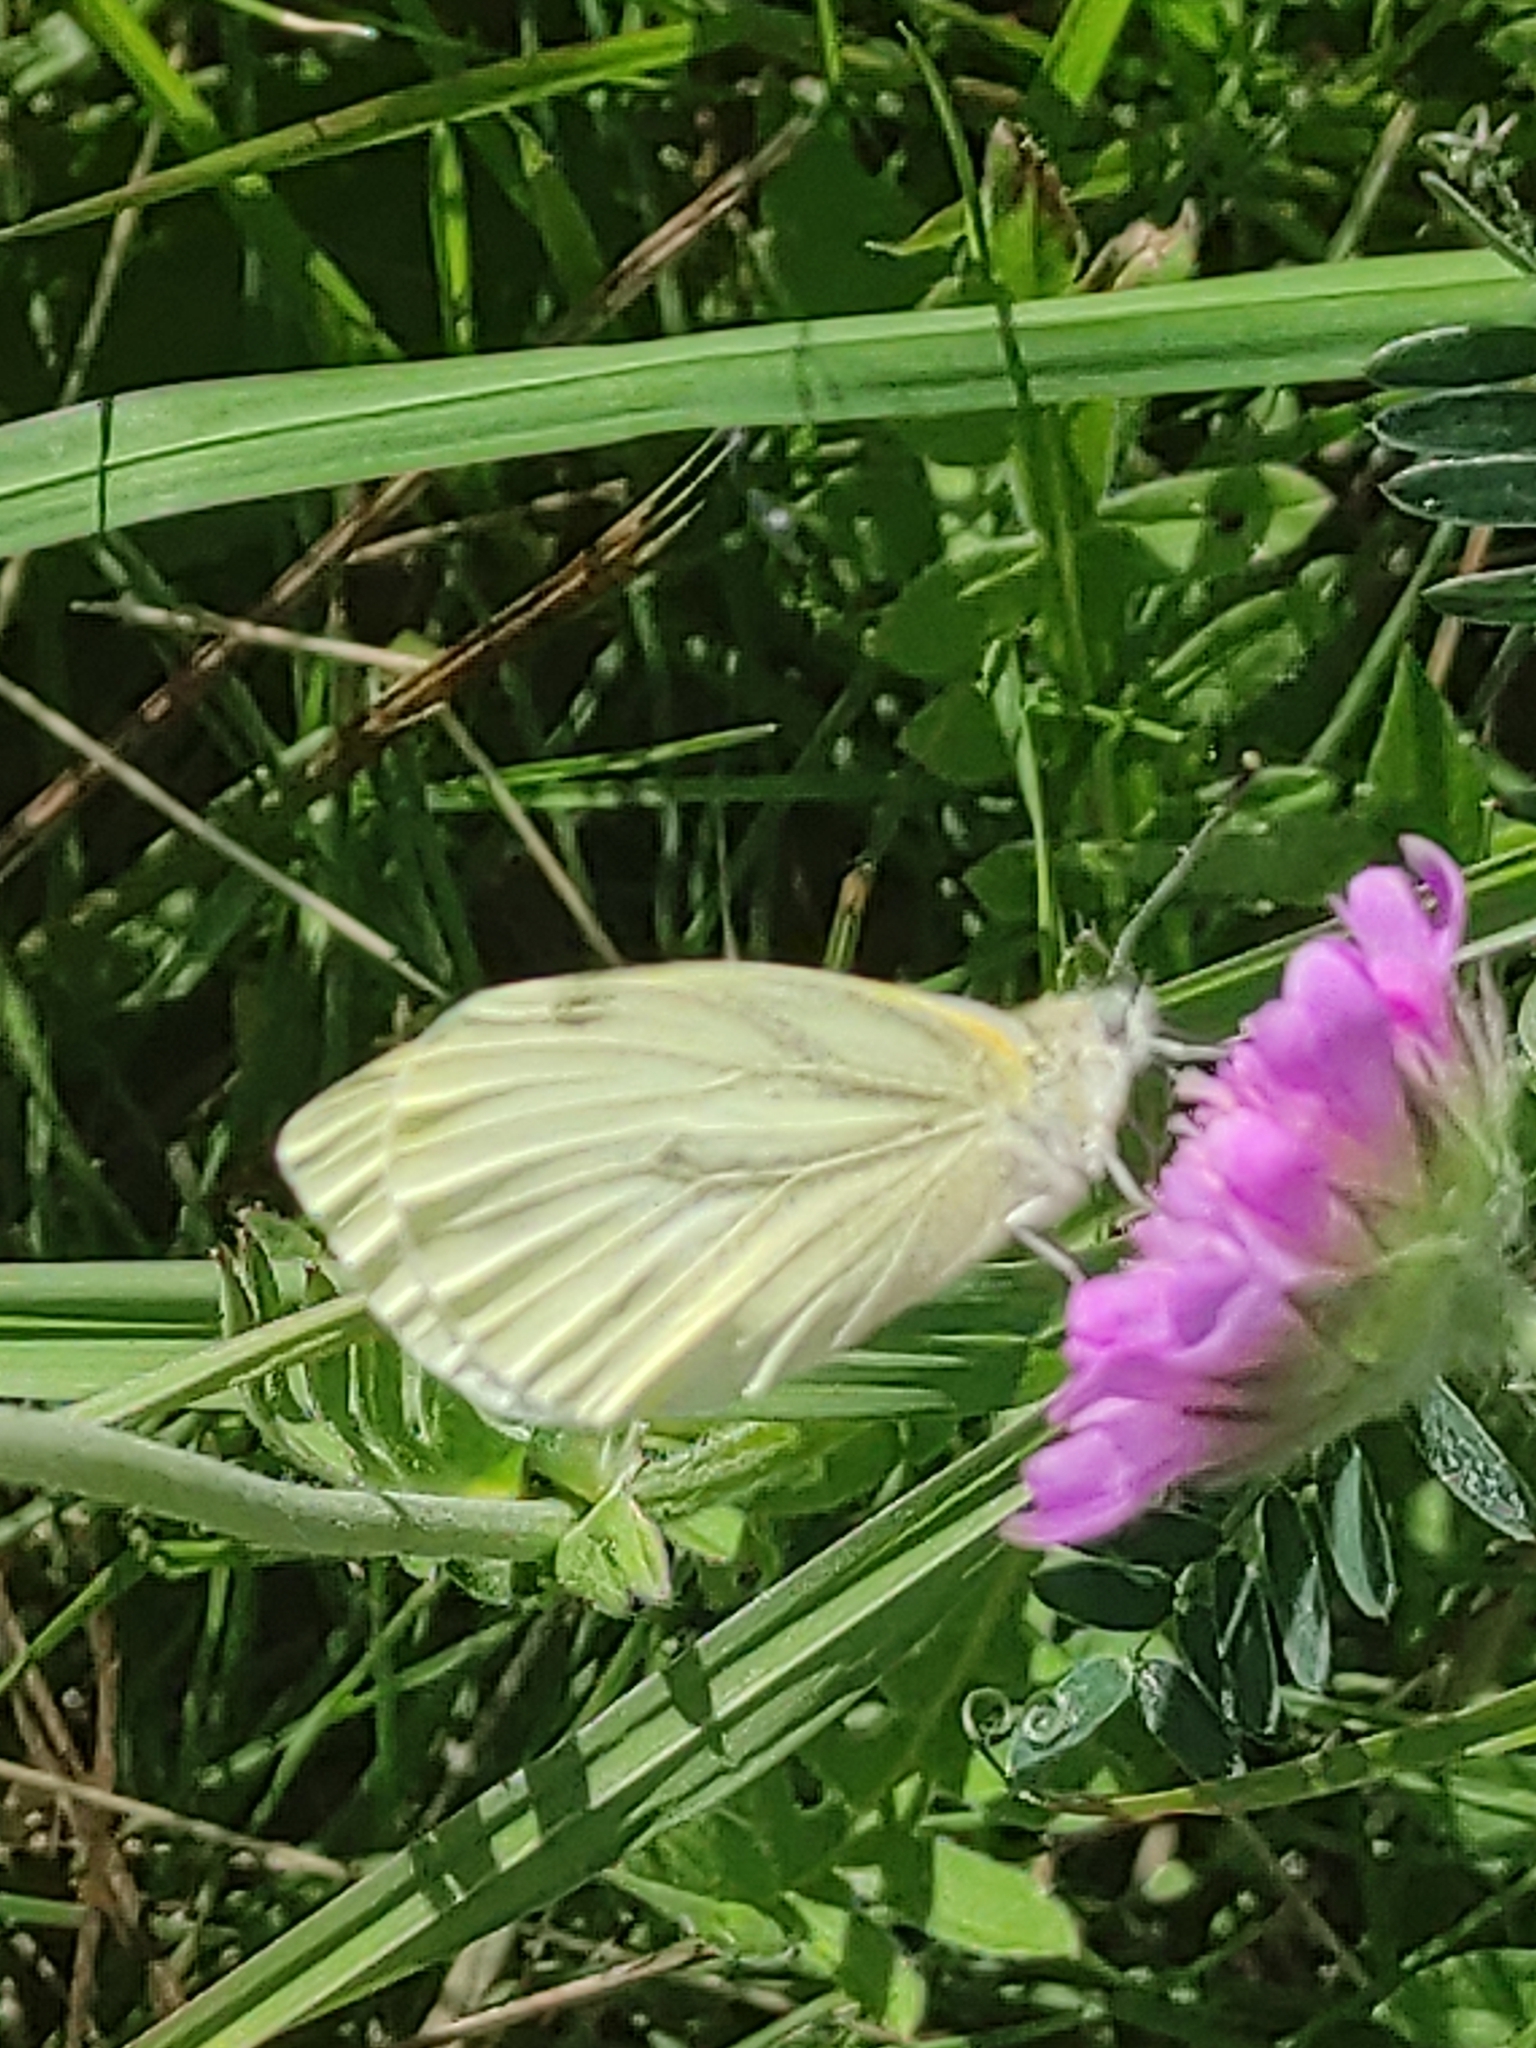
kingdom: Animalia
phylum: Arthropoda
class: Insecta
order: Lepidoptera
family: Pieridae
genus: Pieris
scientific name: Pieris napi
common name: Green-veined white
